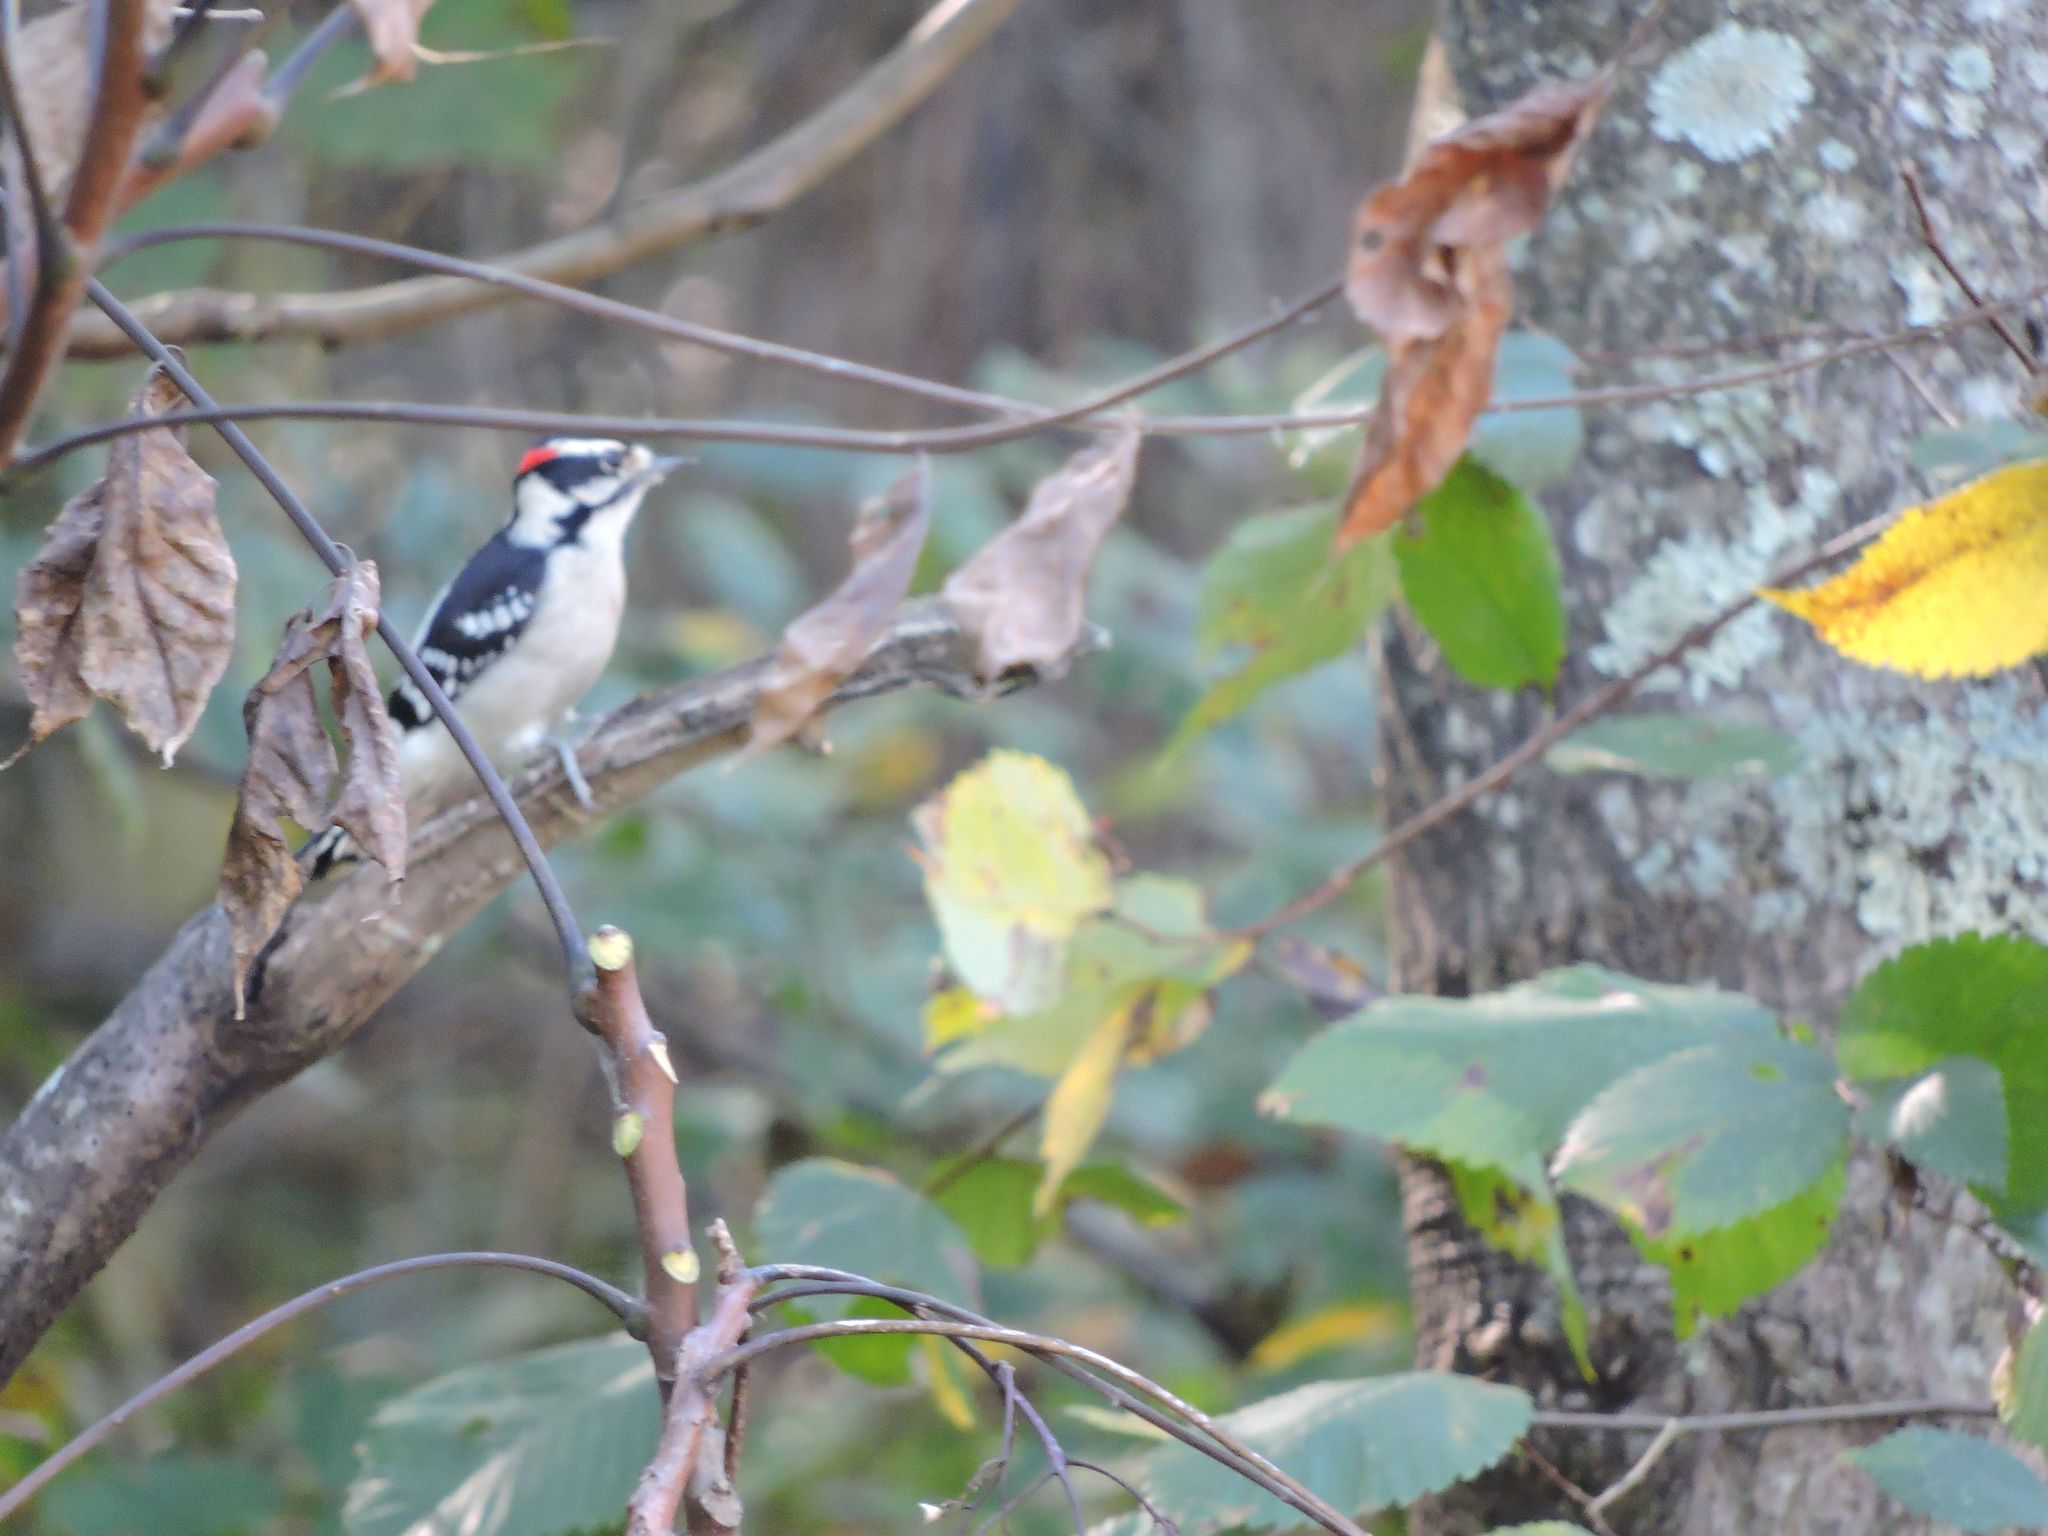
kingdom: Animalia
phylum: Chordata
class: Aves
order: Piciformes
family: Picidae
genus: Dryobates
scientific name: Dryobates pubescens
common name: Downy woodpecker
